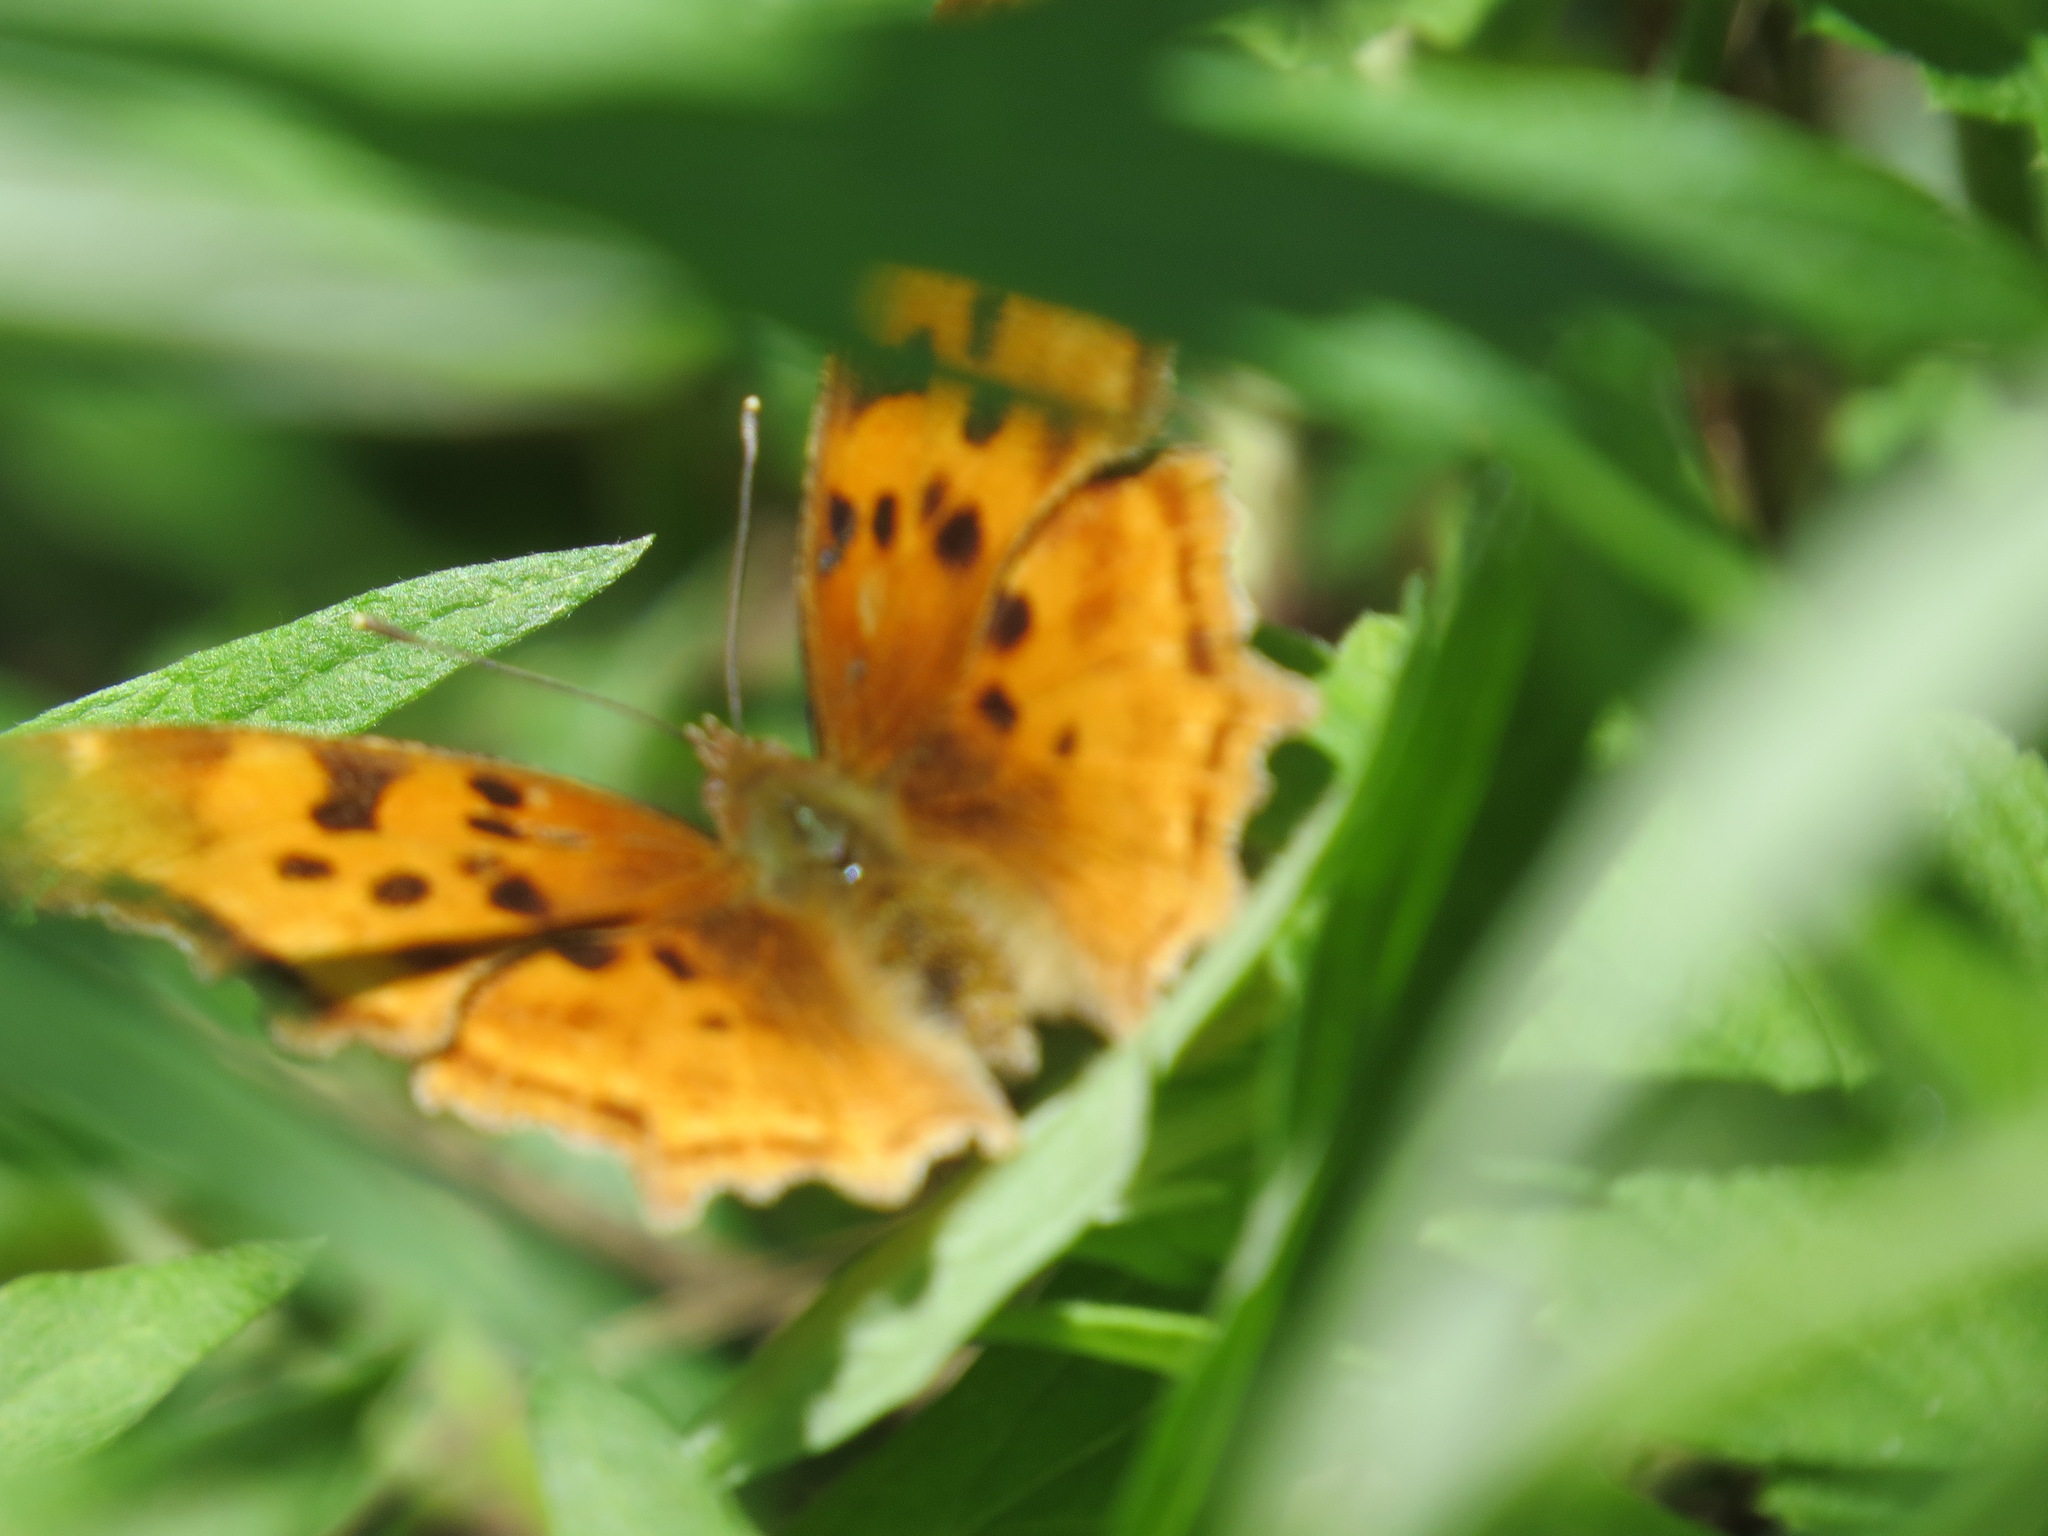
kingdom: Animalia
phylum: Arthropoda
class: Insecta
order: Lepidoptera
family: Nymphalidae
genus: Polygonia
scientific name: Polygonia satyrus
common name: Satyr angle wing
